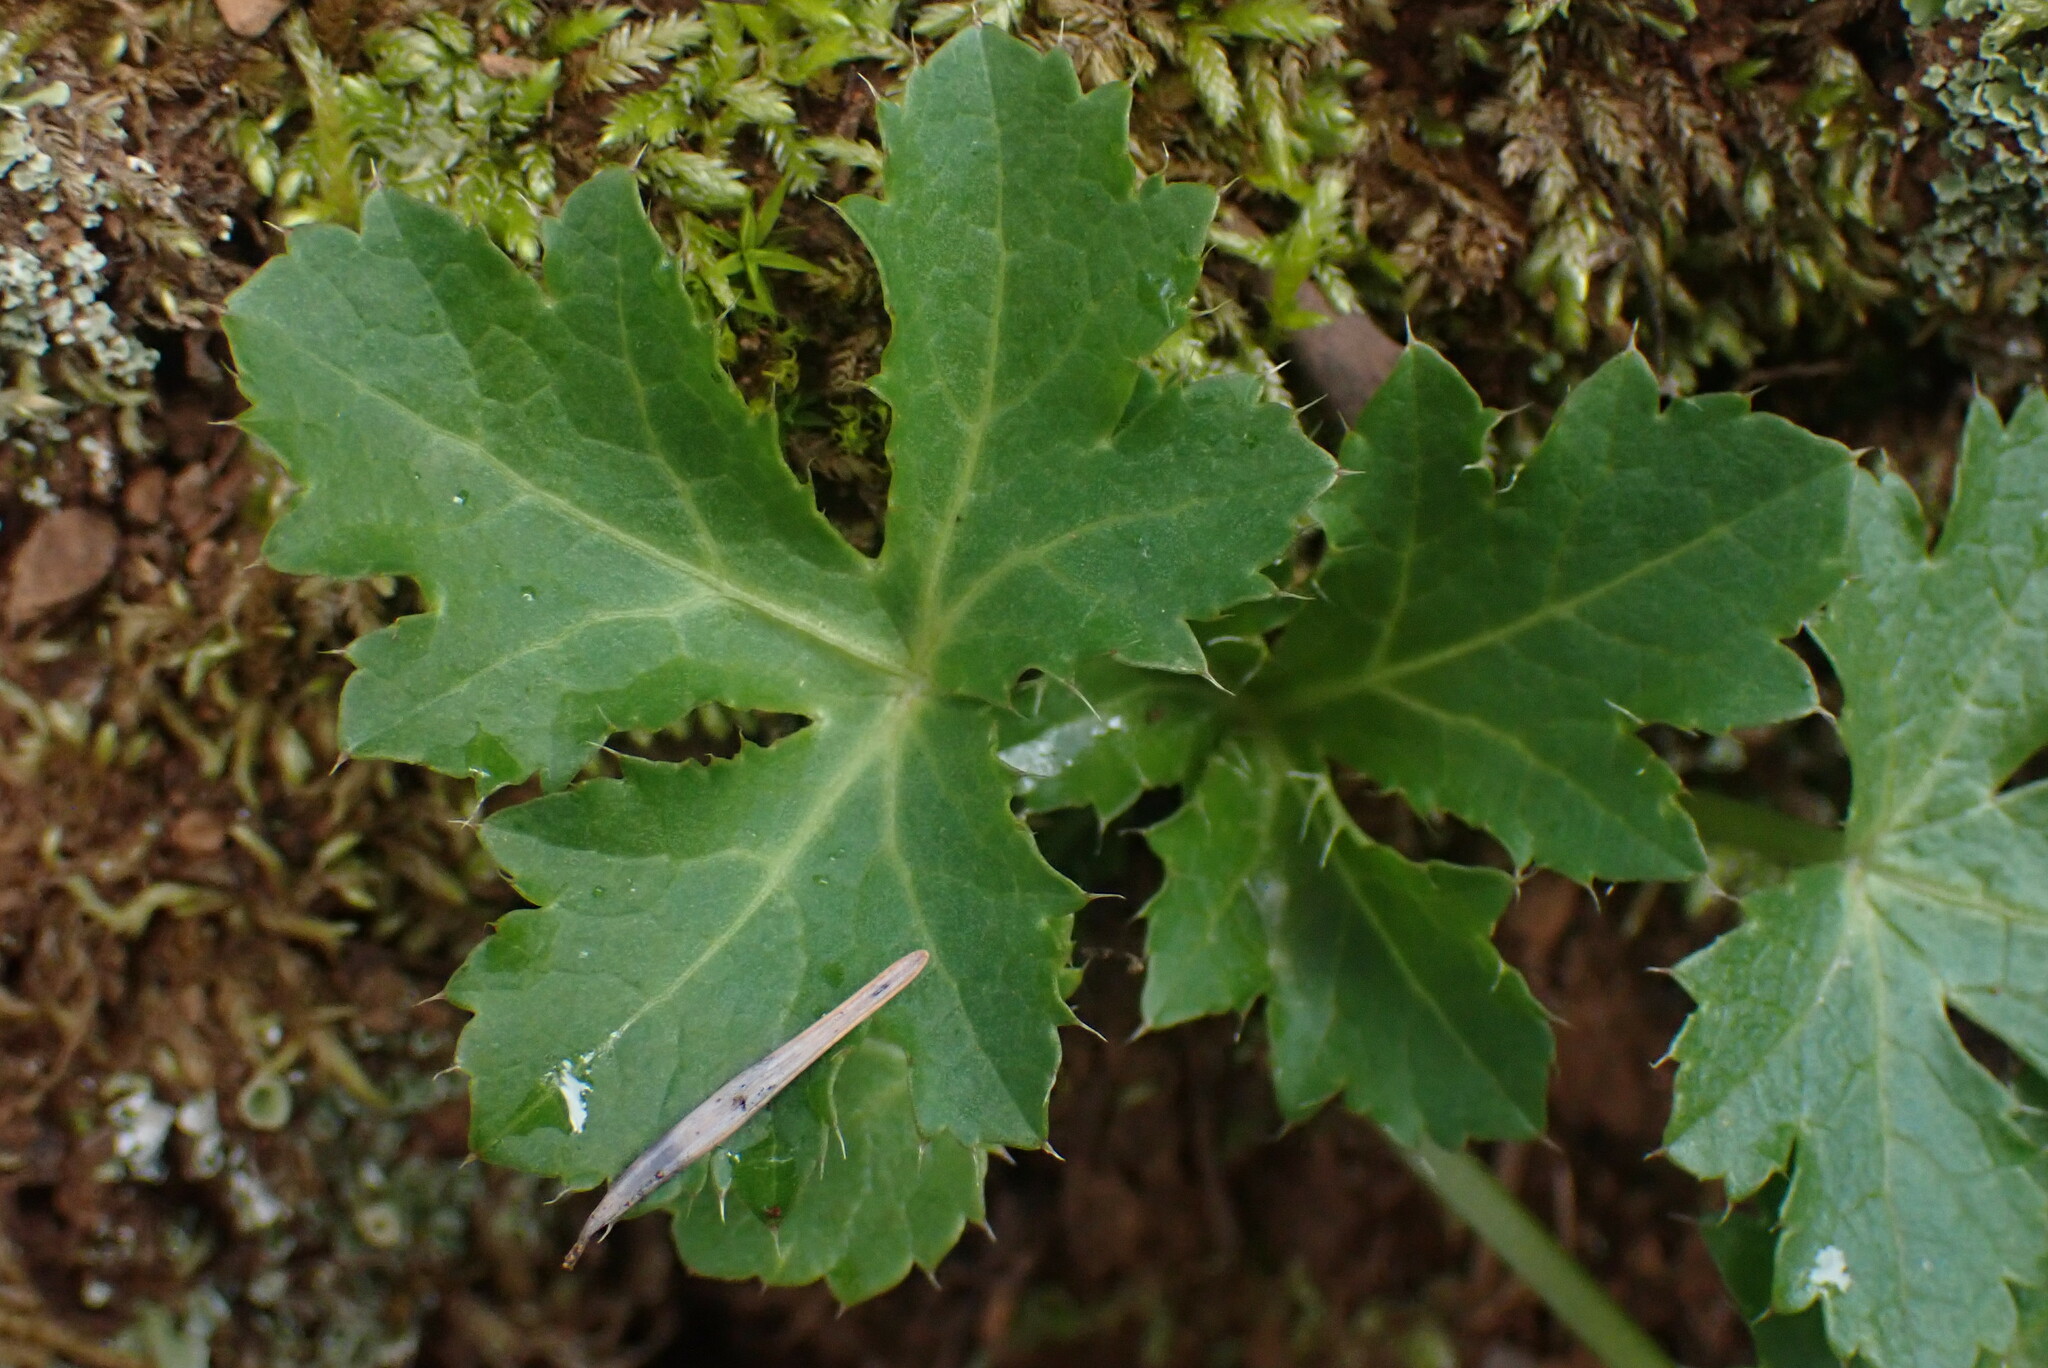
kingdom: Plantae
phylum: Tracheophyta
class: Magnoliopsida
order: Apiales
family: Apiaceae
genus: Sanicula
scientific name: Sanicula crassicaulis
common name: Western snakeroot
